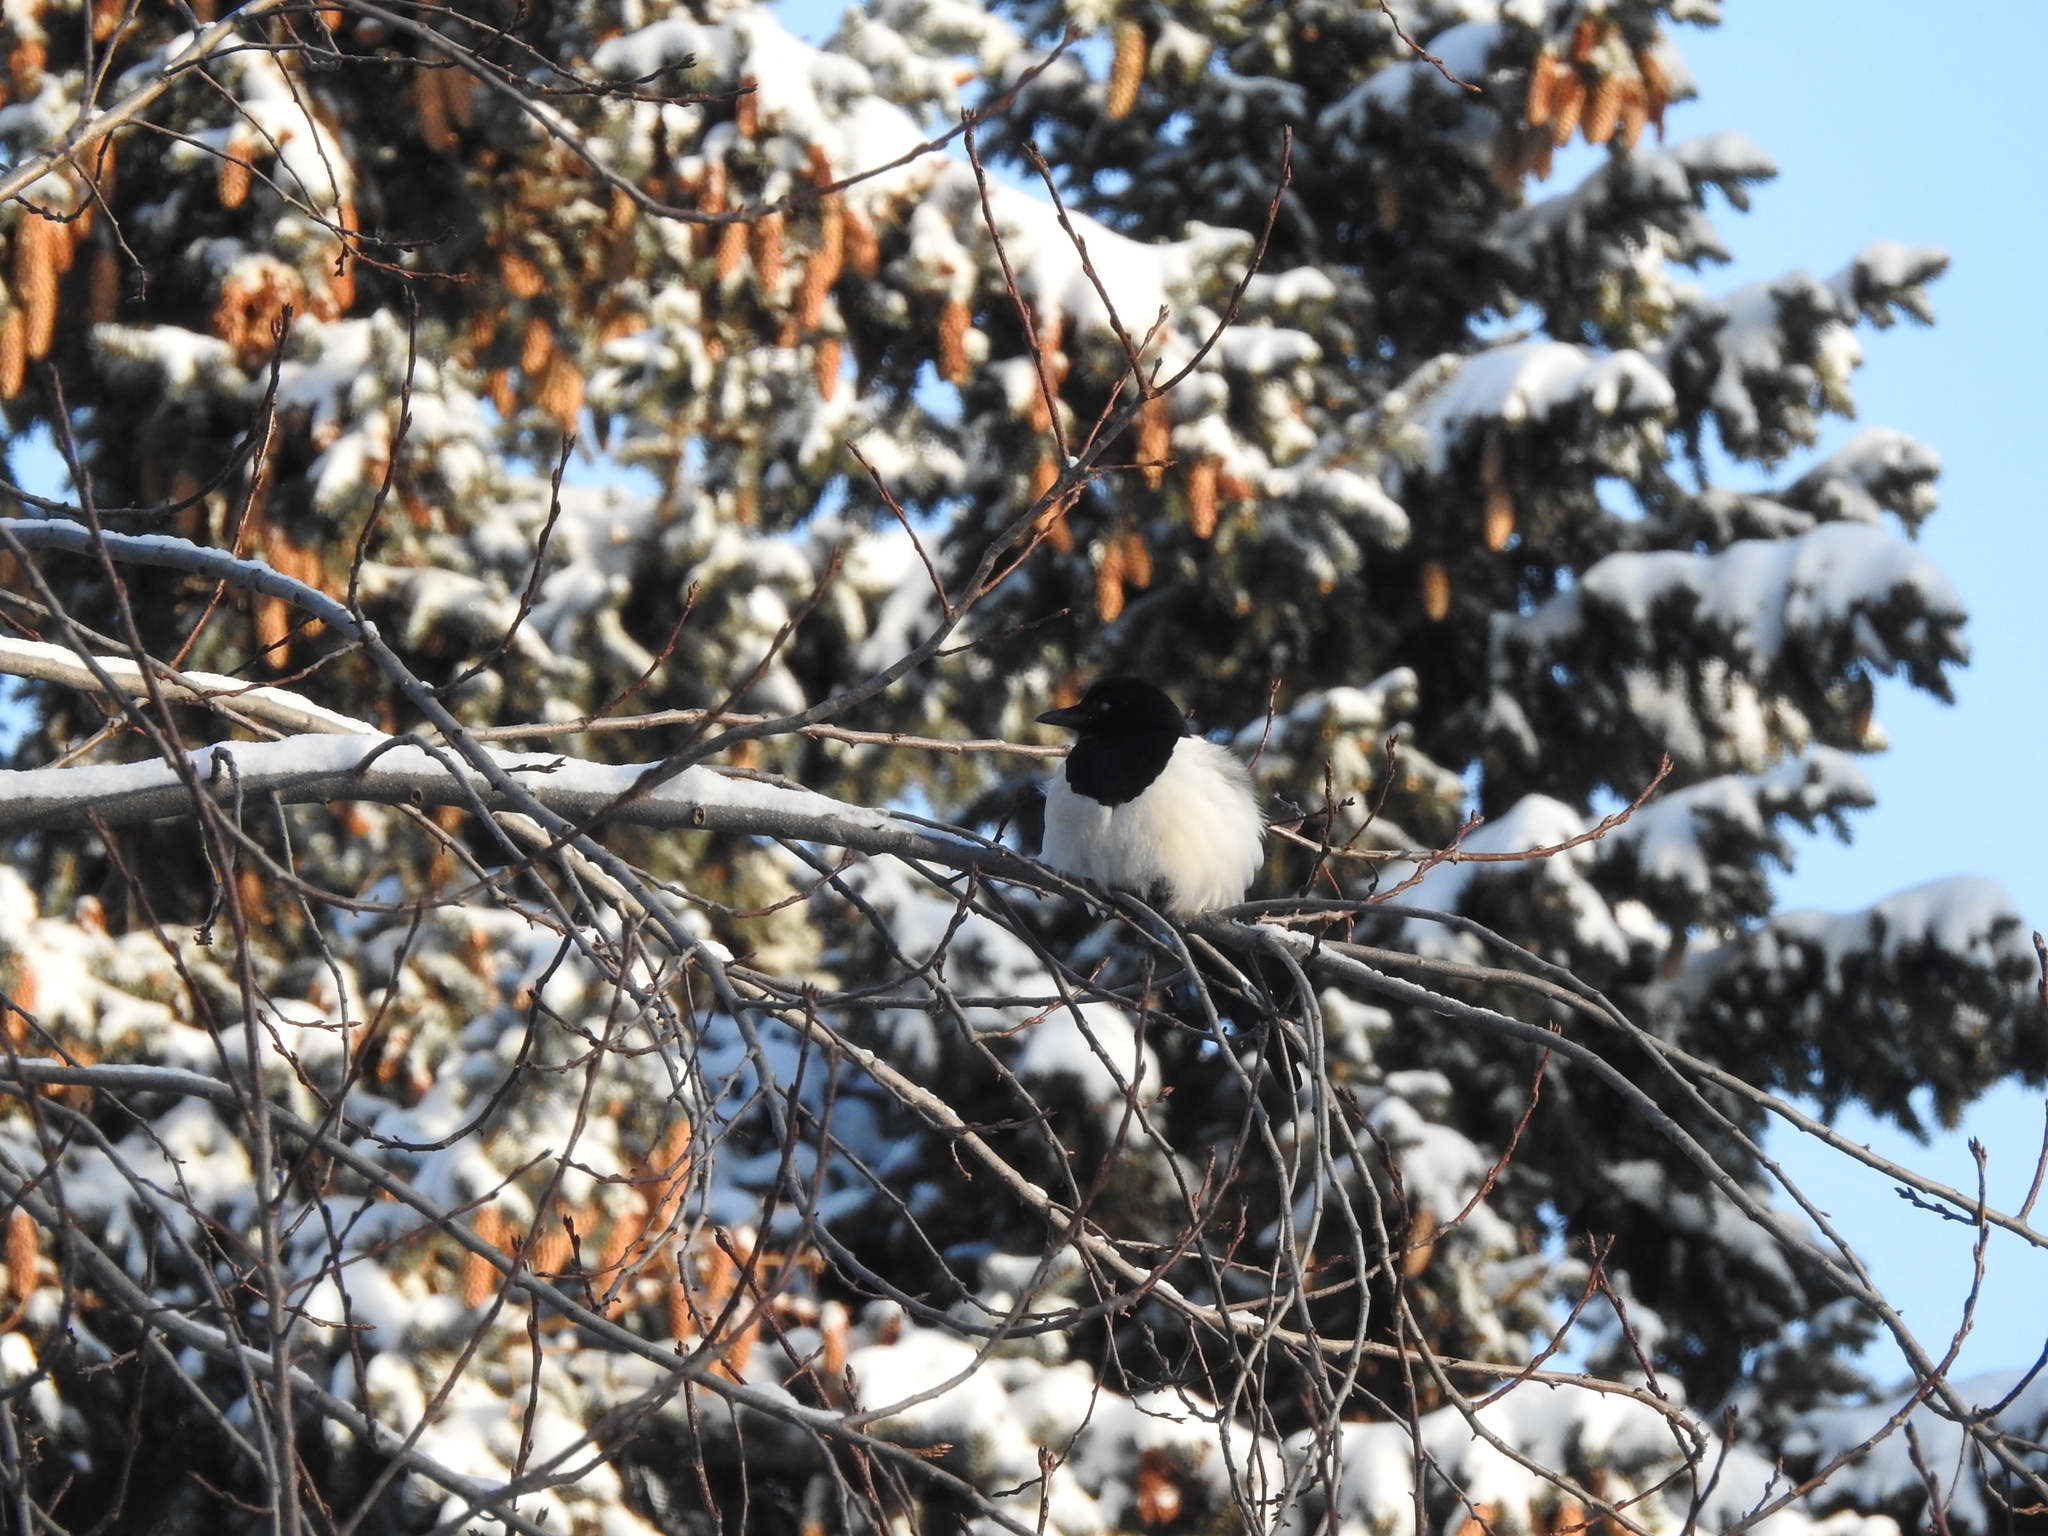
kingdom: Animalia
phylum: Chordata
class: Aves
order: Passeriformes
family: Corvidae
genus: Pica
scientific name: Pica pica
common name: Eurasian magpie
